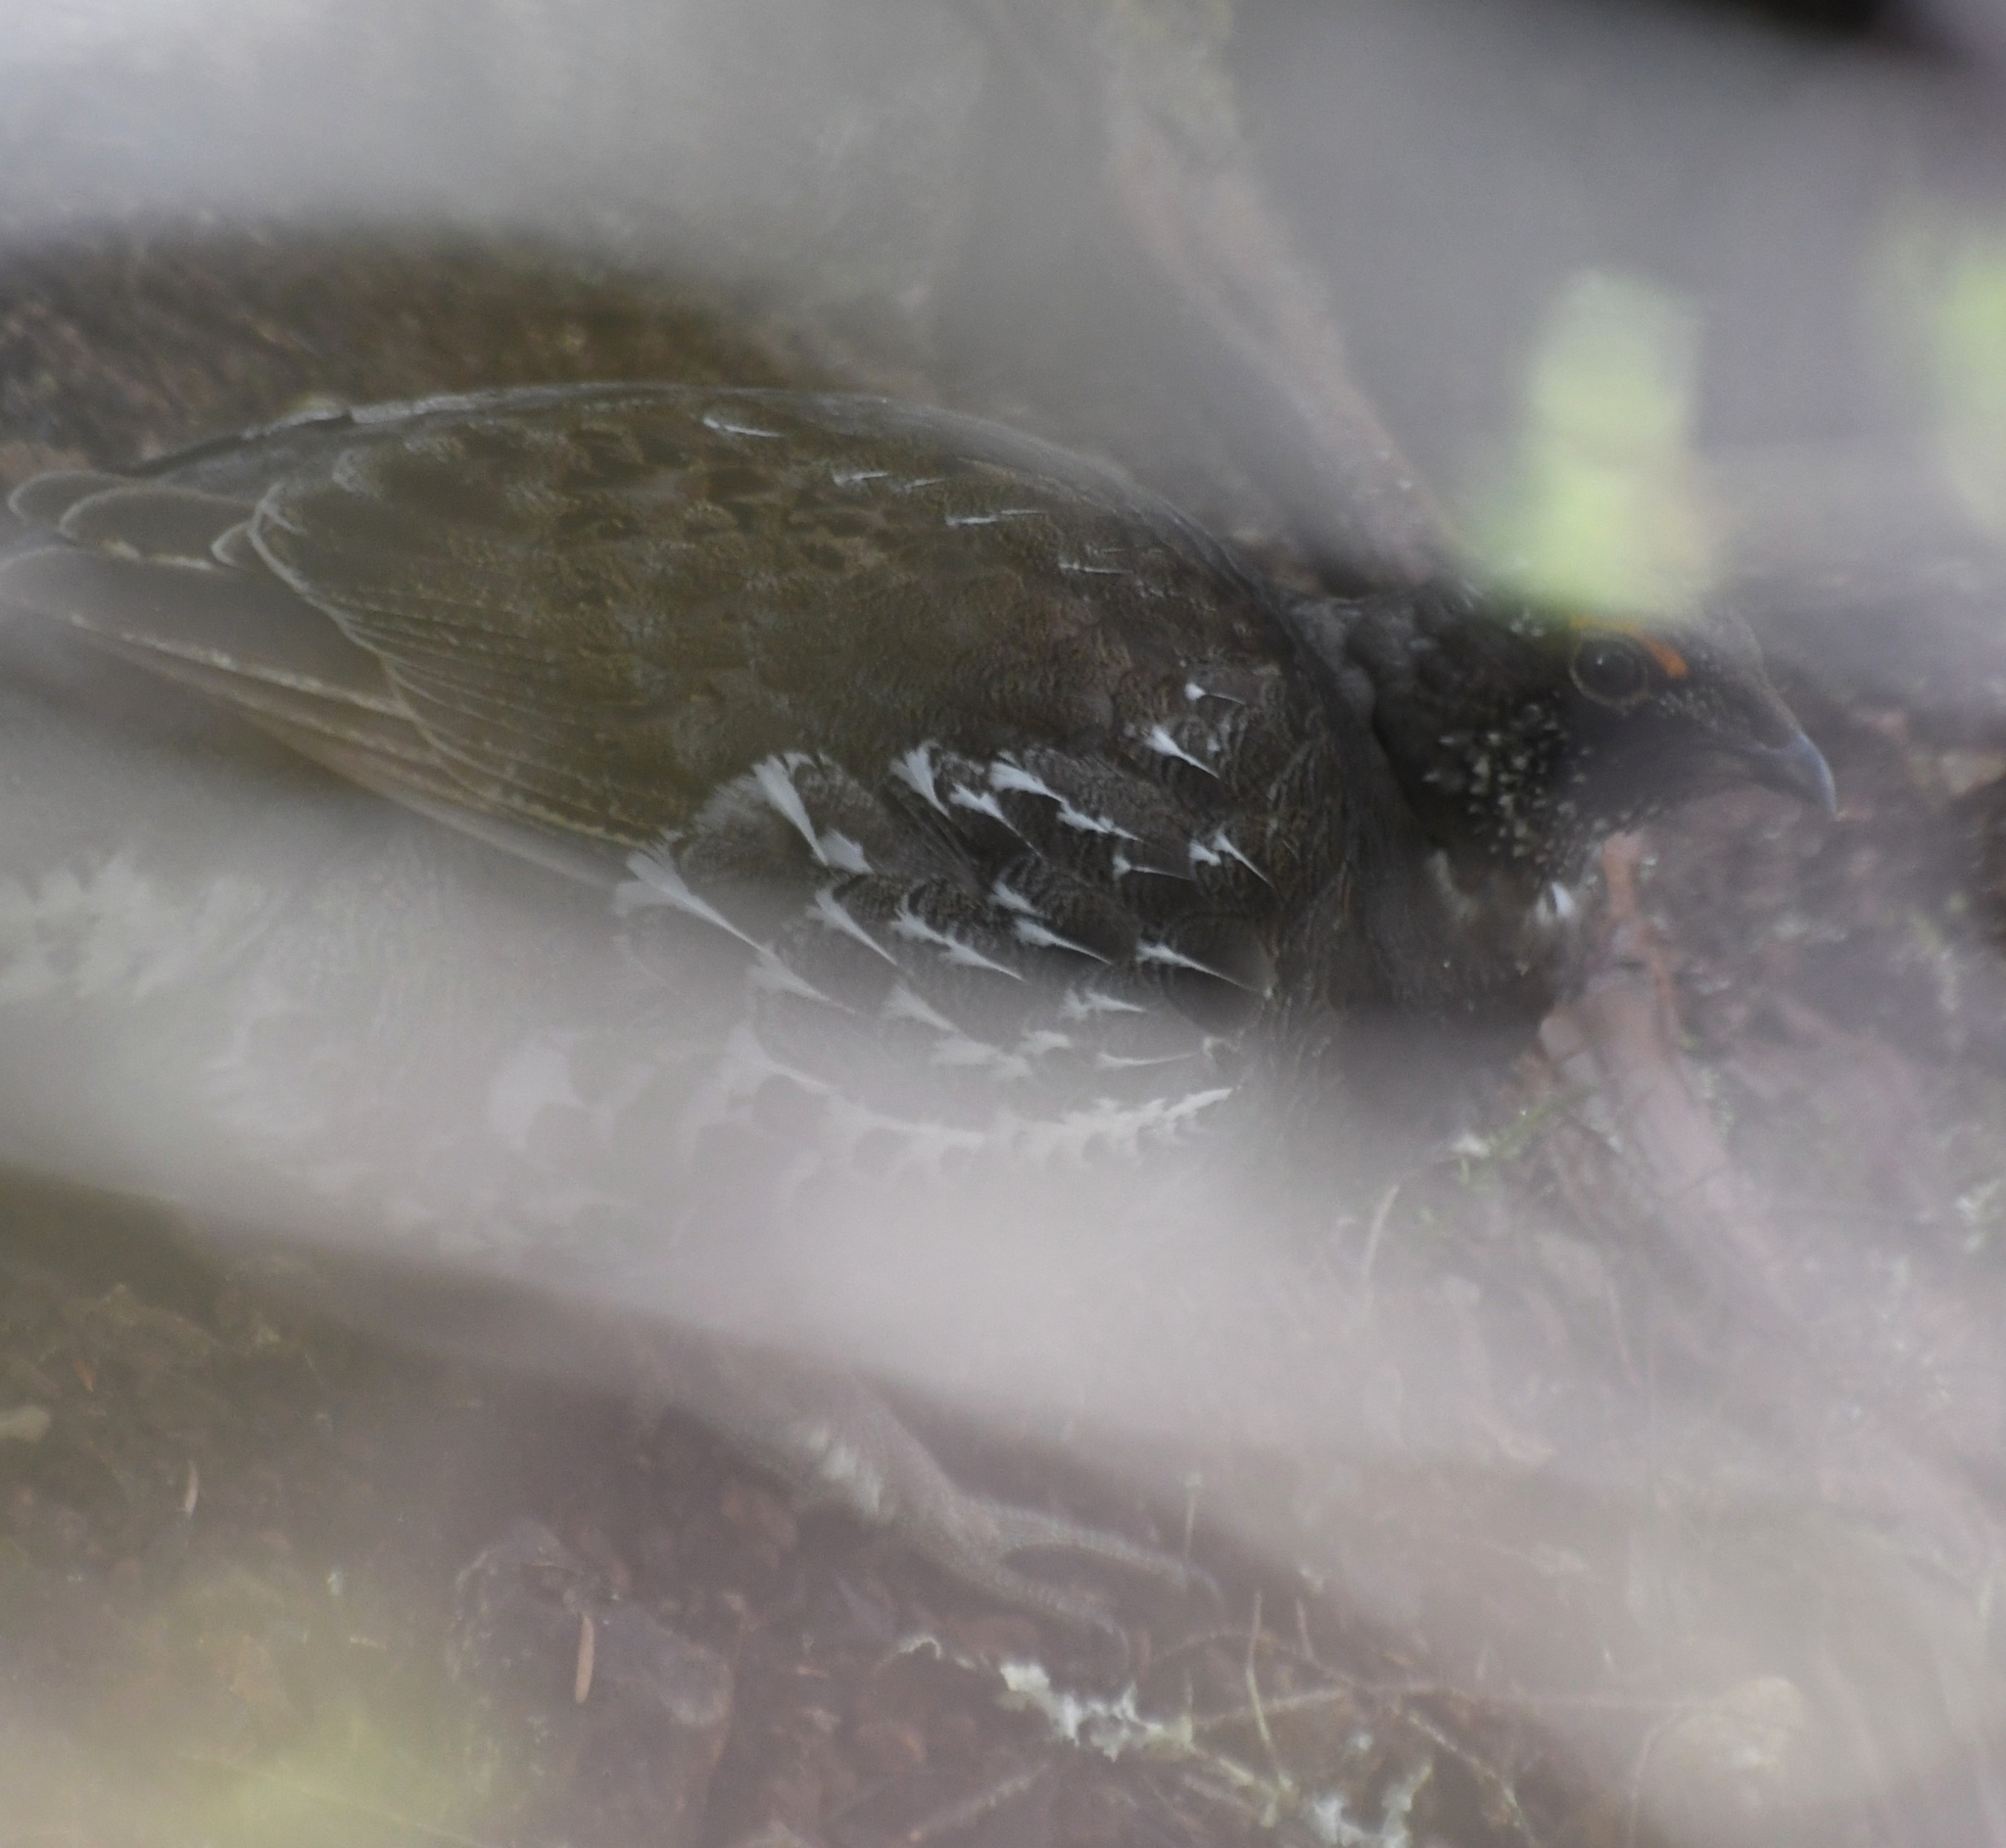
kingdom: Animalia
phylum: Chordata
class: Aves
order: Galliformes
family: Phasianidae
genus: Dendragapus
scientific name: Dendragapus fuliginosus
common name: Sooty grouse
